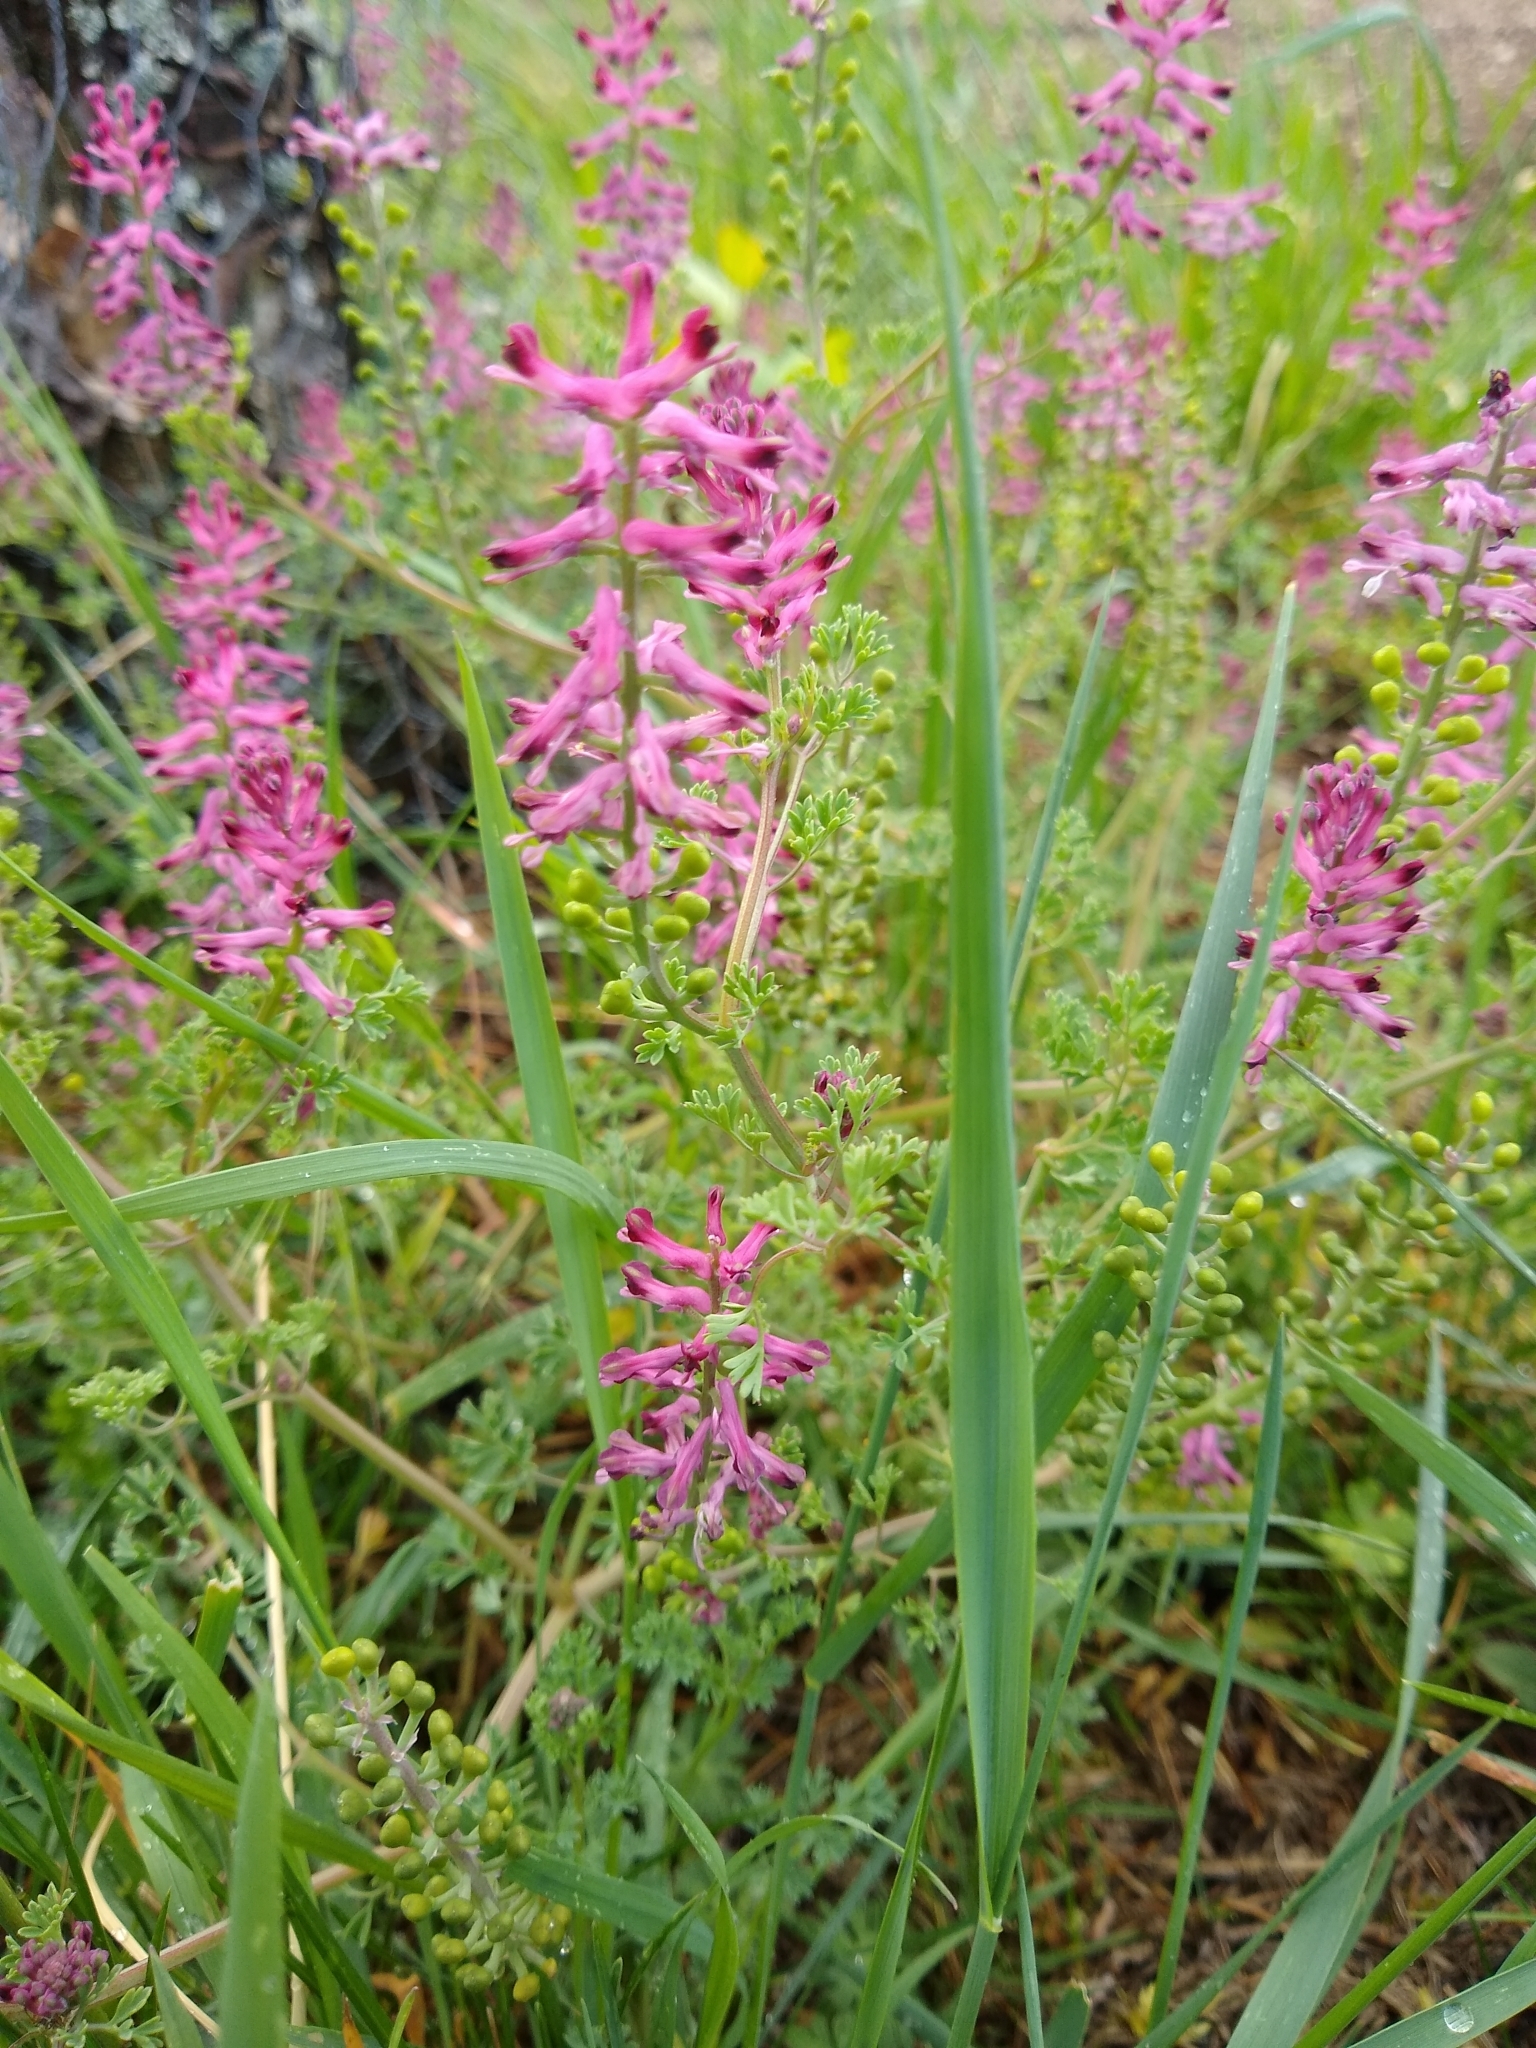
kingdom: Plantae
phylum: Tracheophyta
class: Magnoliopsida
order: Ranunculales
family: Papaveraceae
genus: Fumaria
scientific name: Fumaria officinalis
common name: Common fumitory
